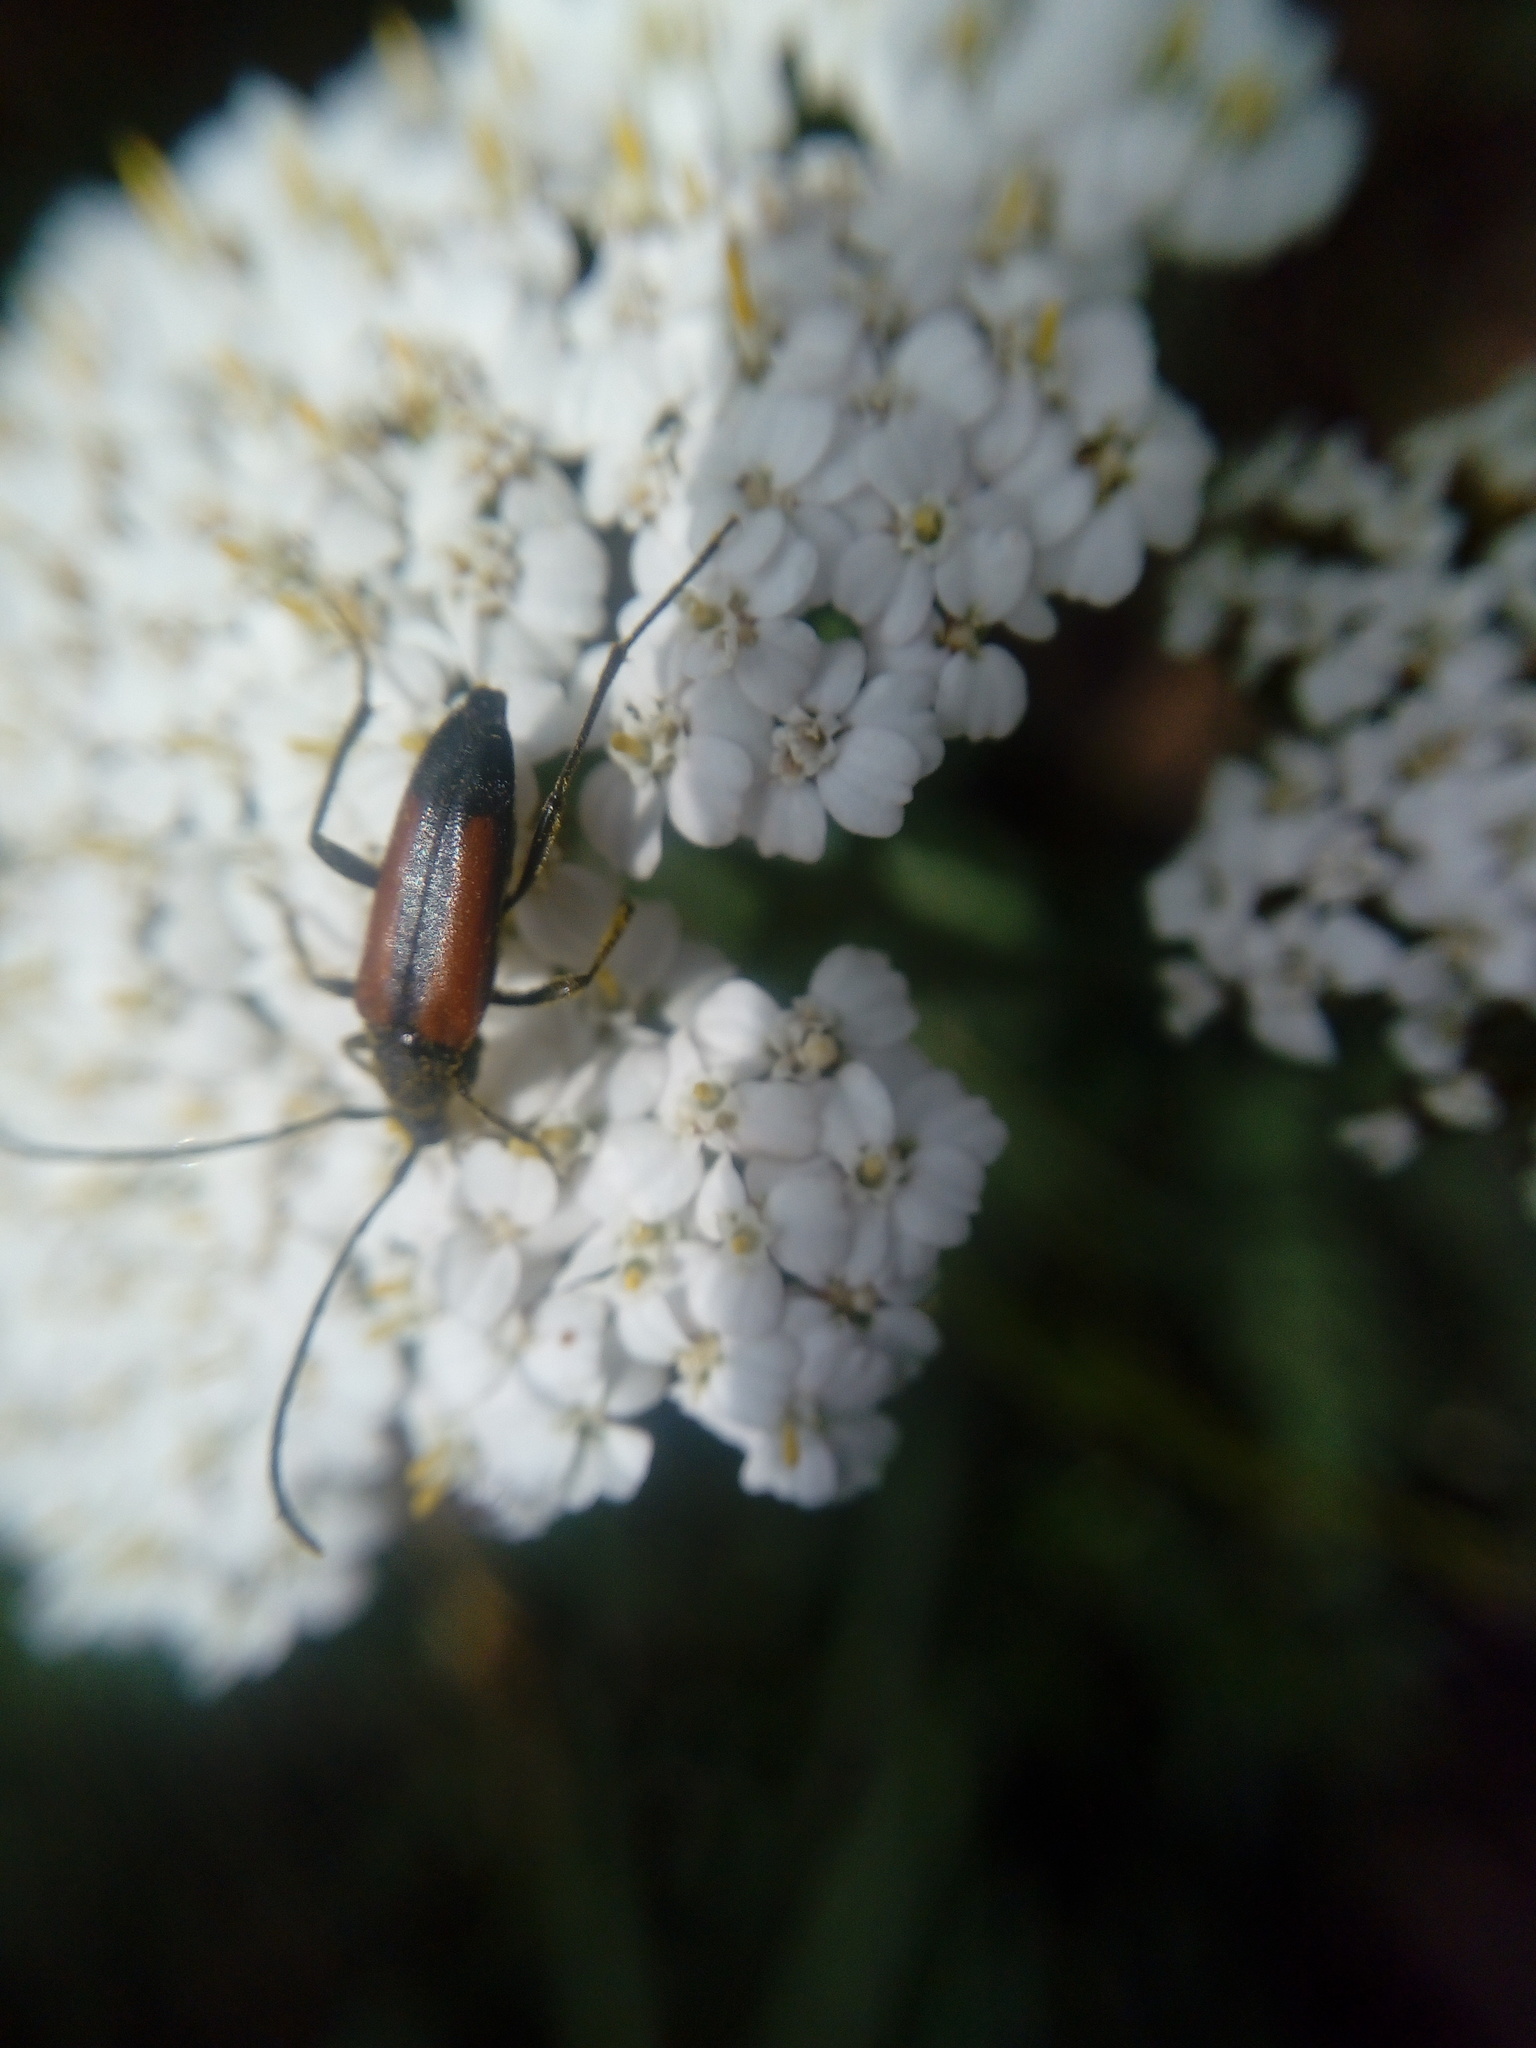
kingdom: Animalia
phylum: Arthropoda
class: Insecta
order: Coleoptera
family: Cerambycidae
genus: Stenurella
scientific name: Stenurella melanura
